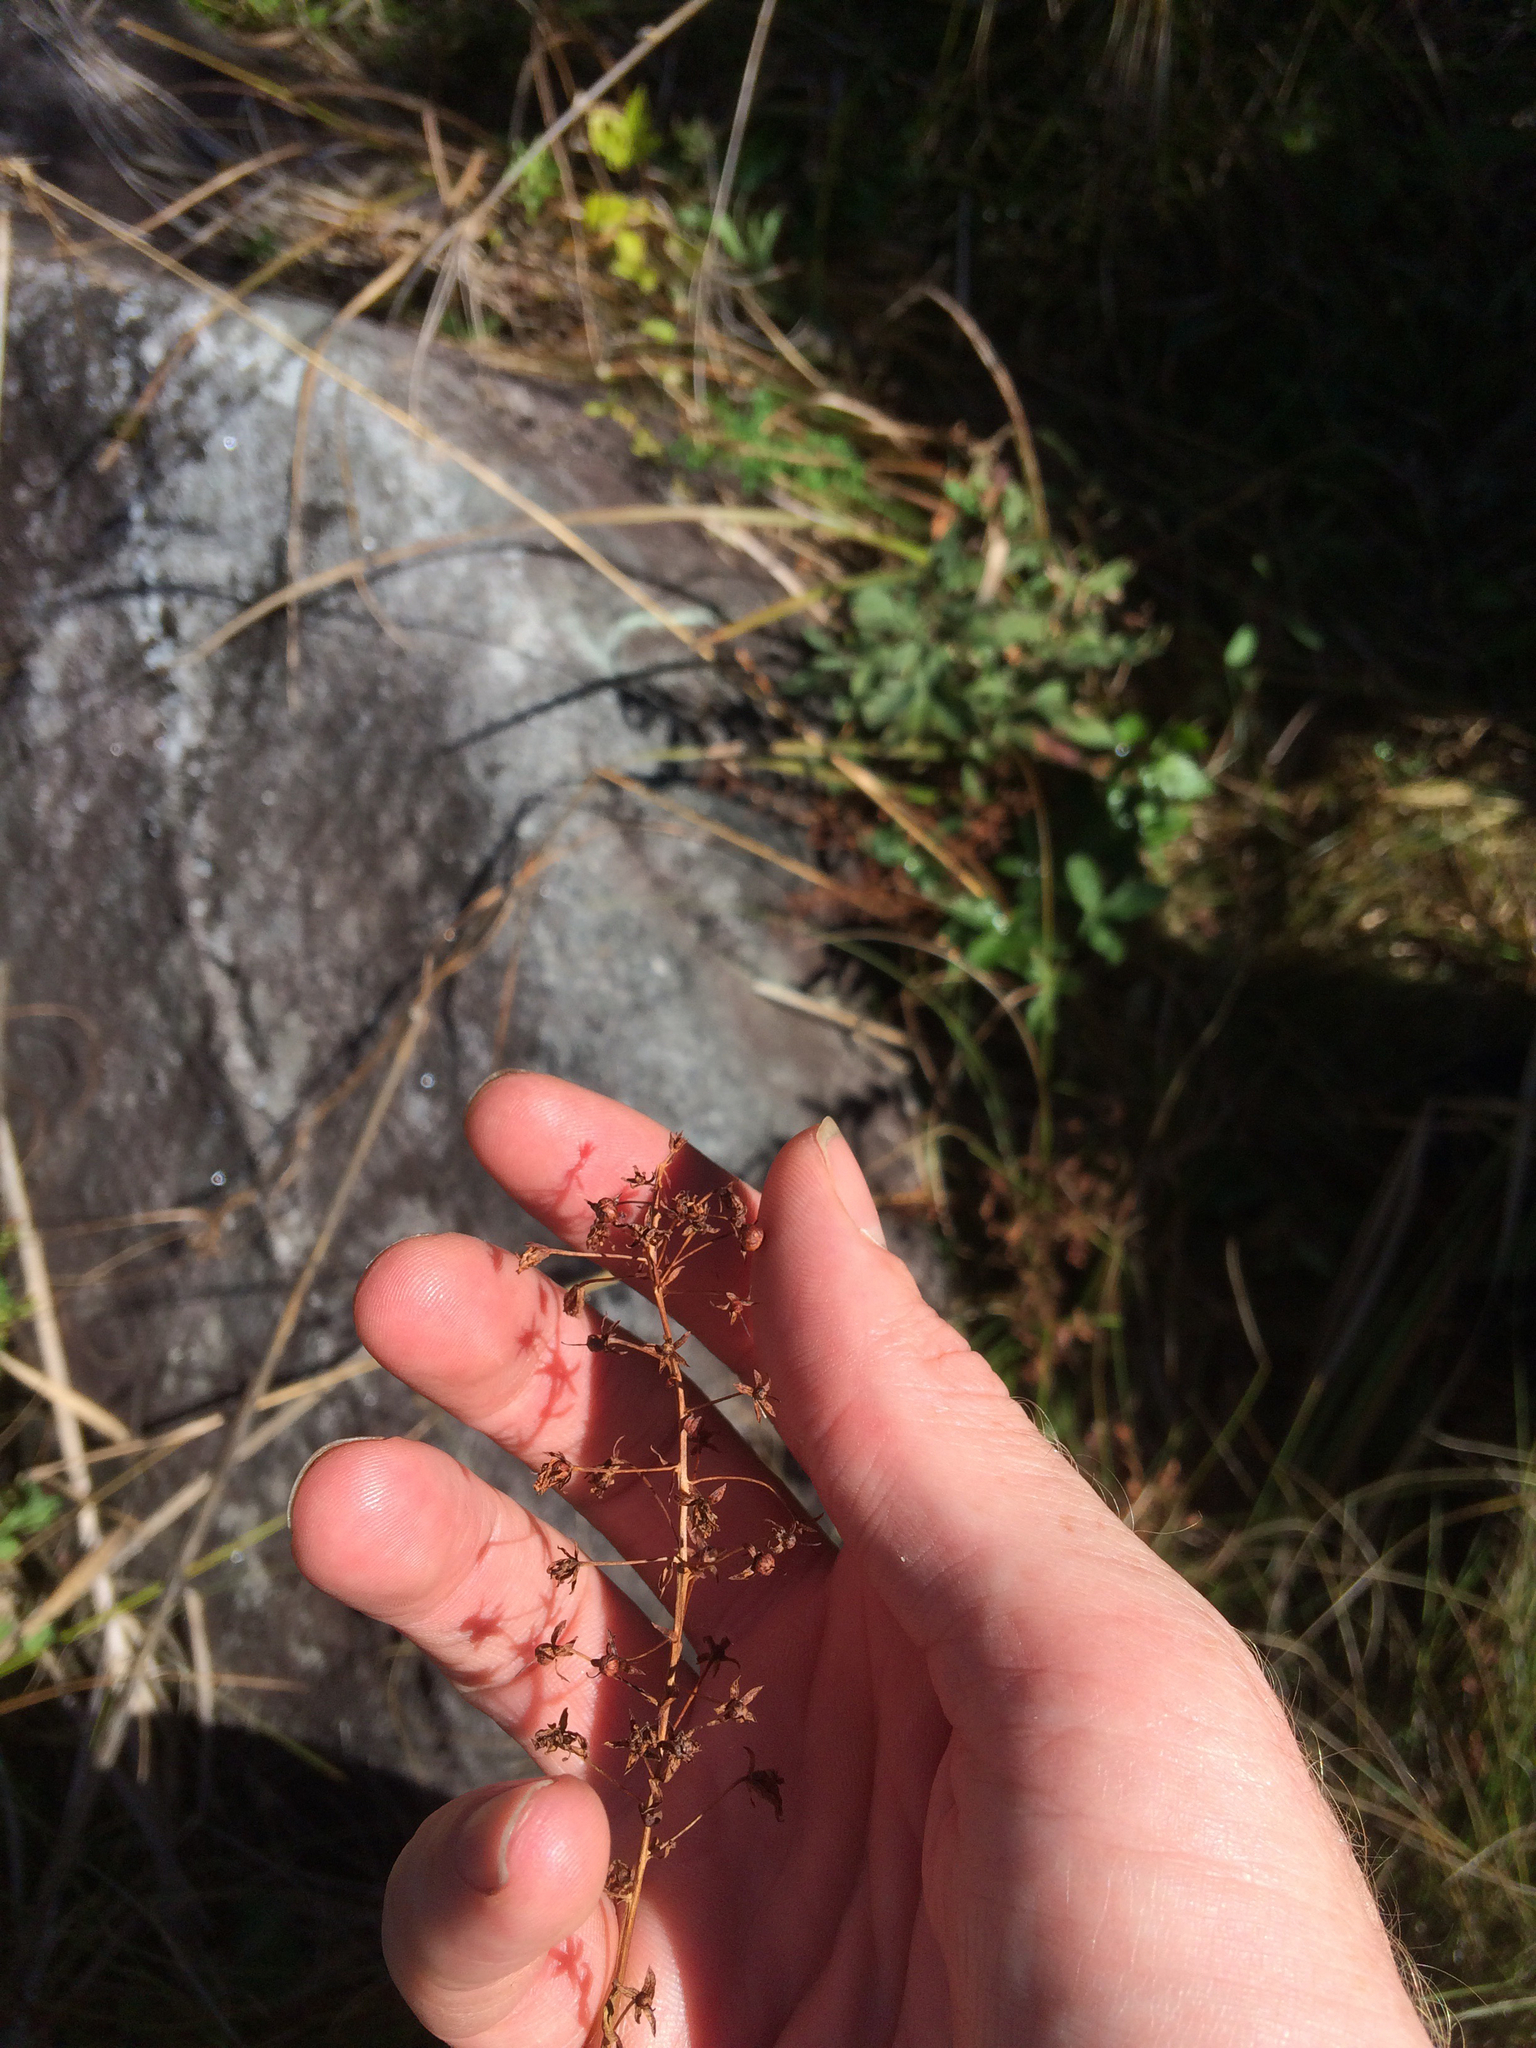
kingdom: Plantae
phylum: Tracheophyta
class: Magnoliopsida
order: Ericales
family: Primulaceae
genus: Lysimachia
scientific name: Lysimachia terrestris
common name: Lake loosestrife
